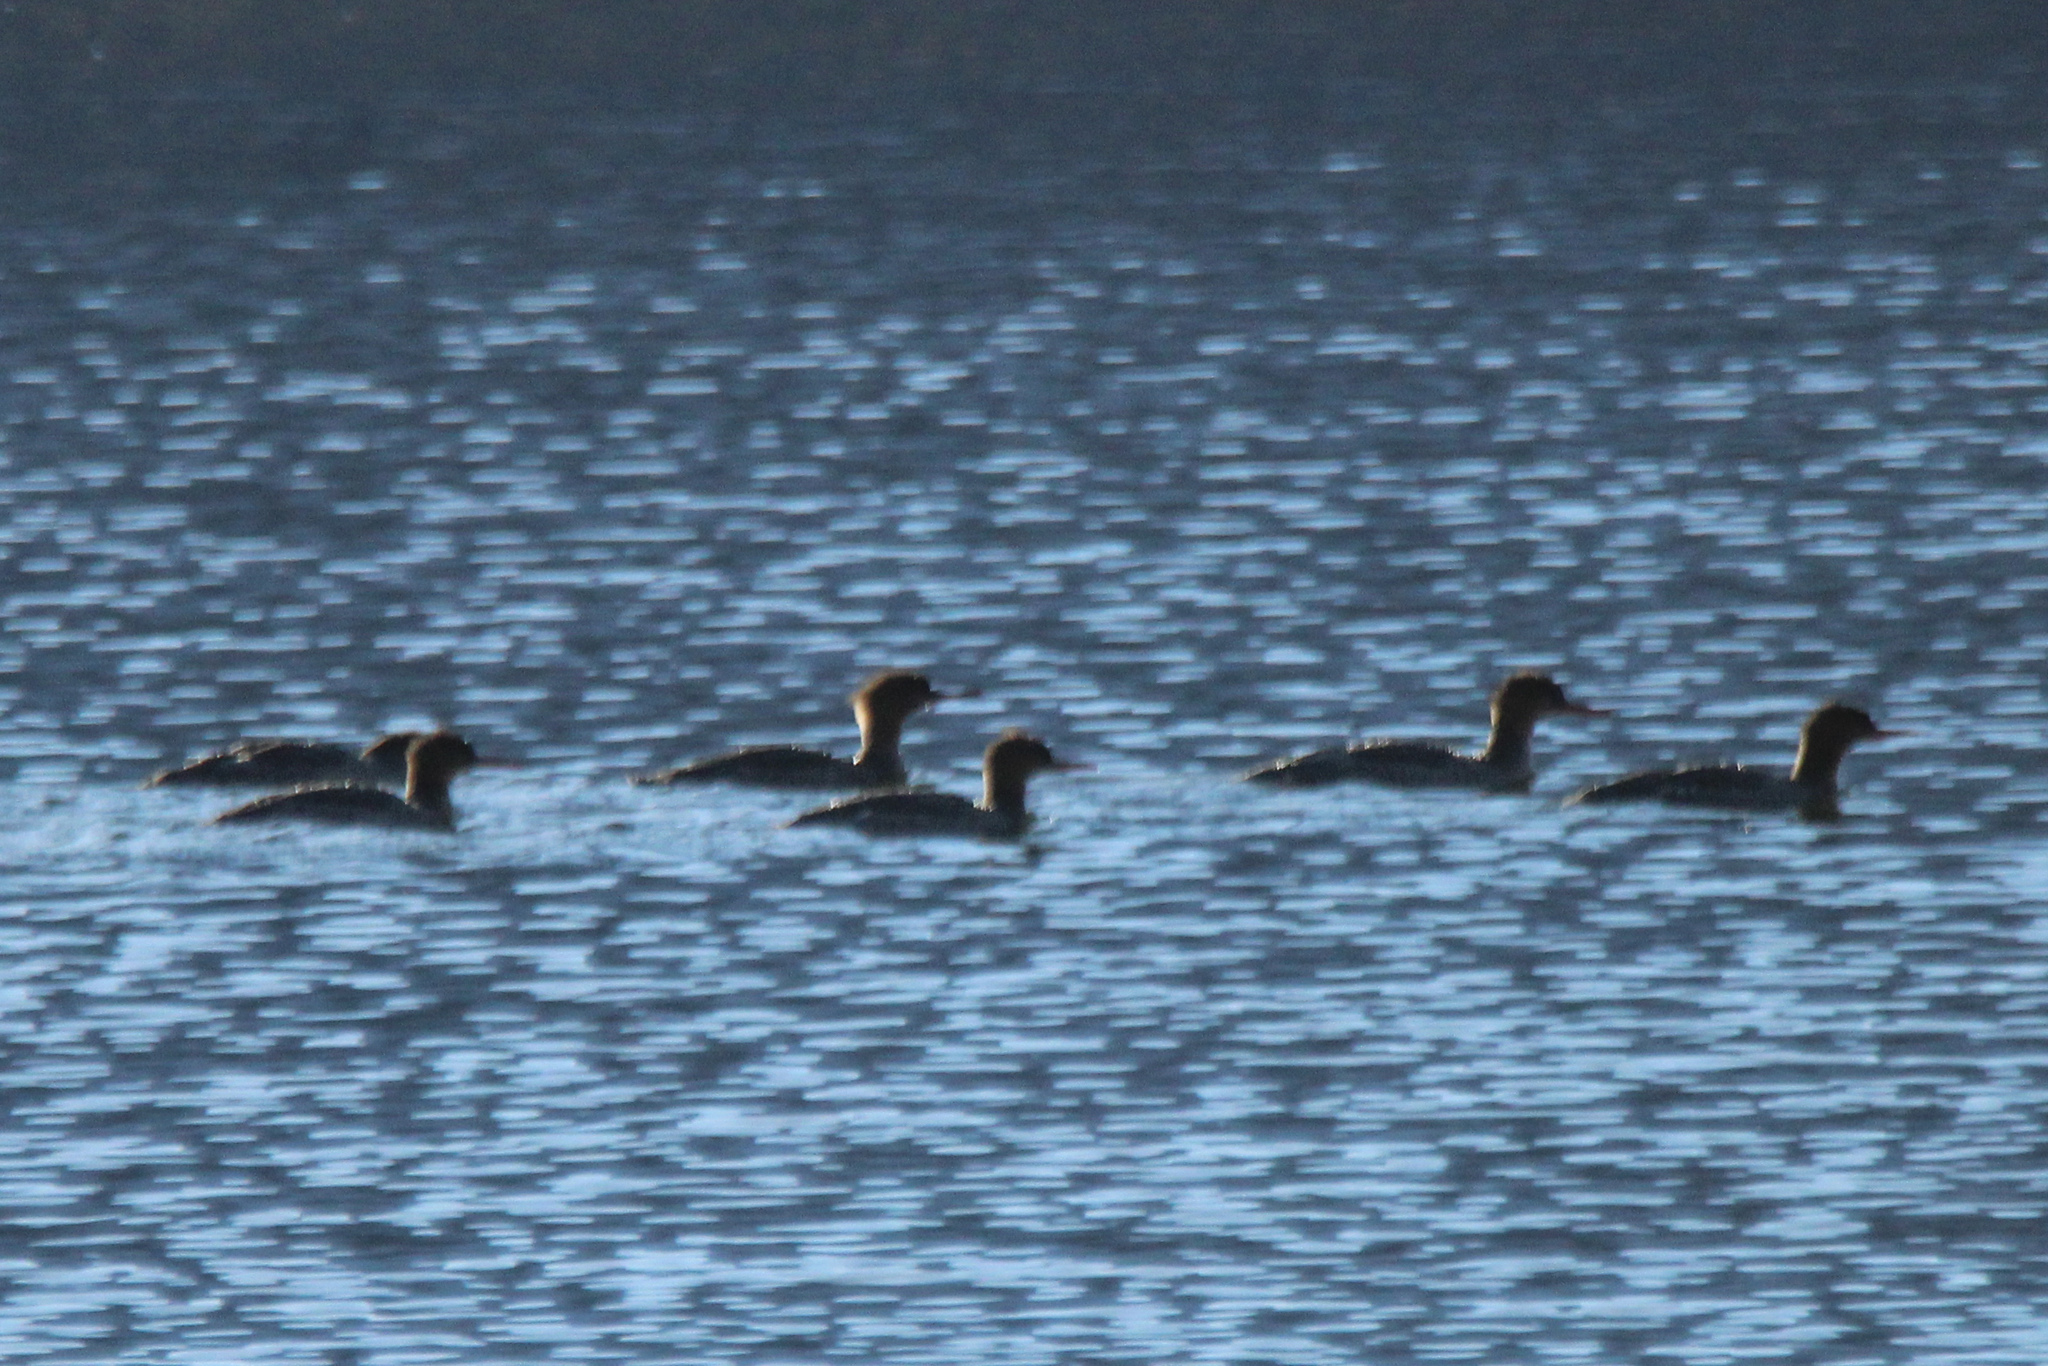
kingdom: Animalia
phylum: Chordata
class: Aves
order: Anseriformes
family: Anatidae
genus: Mergus
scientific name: Mergus serrator
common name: Red-breasted merganser
